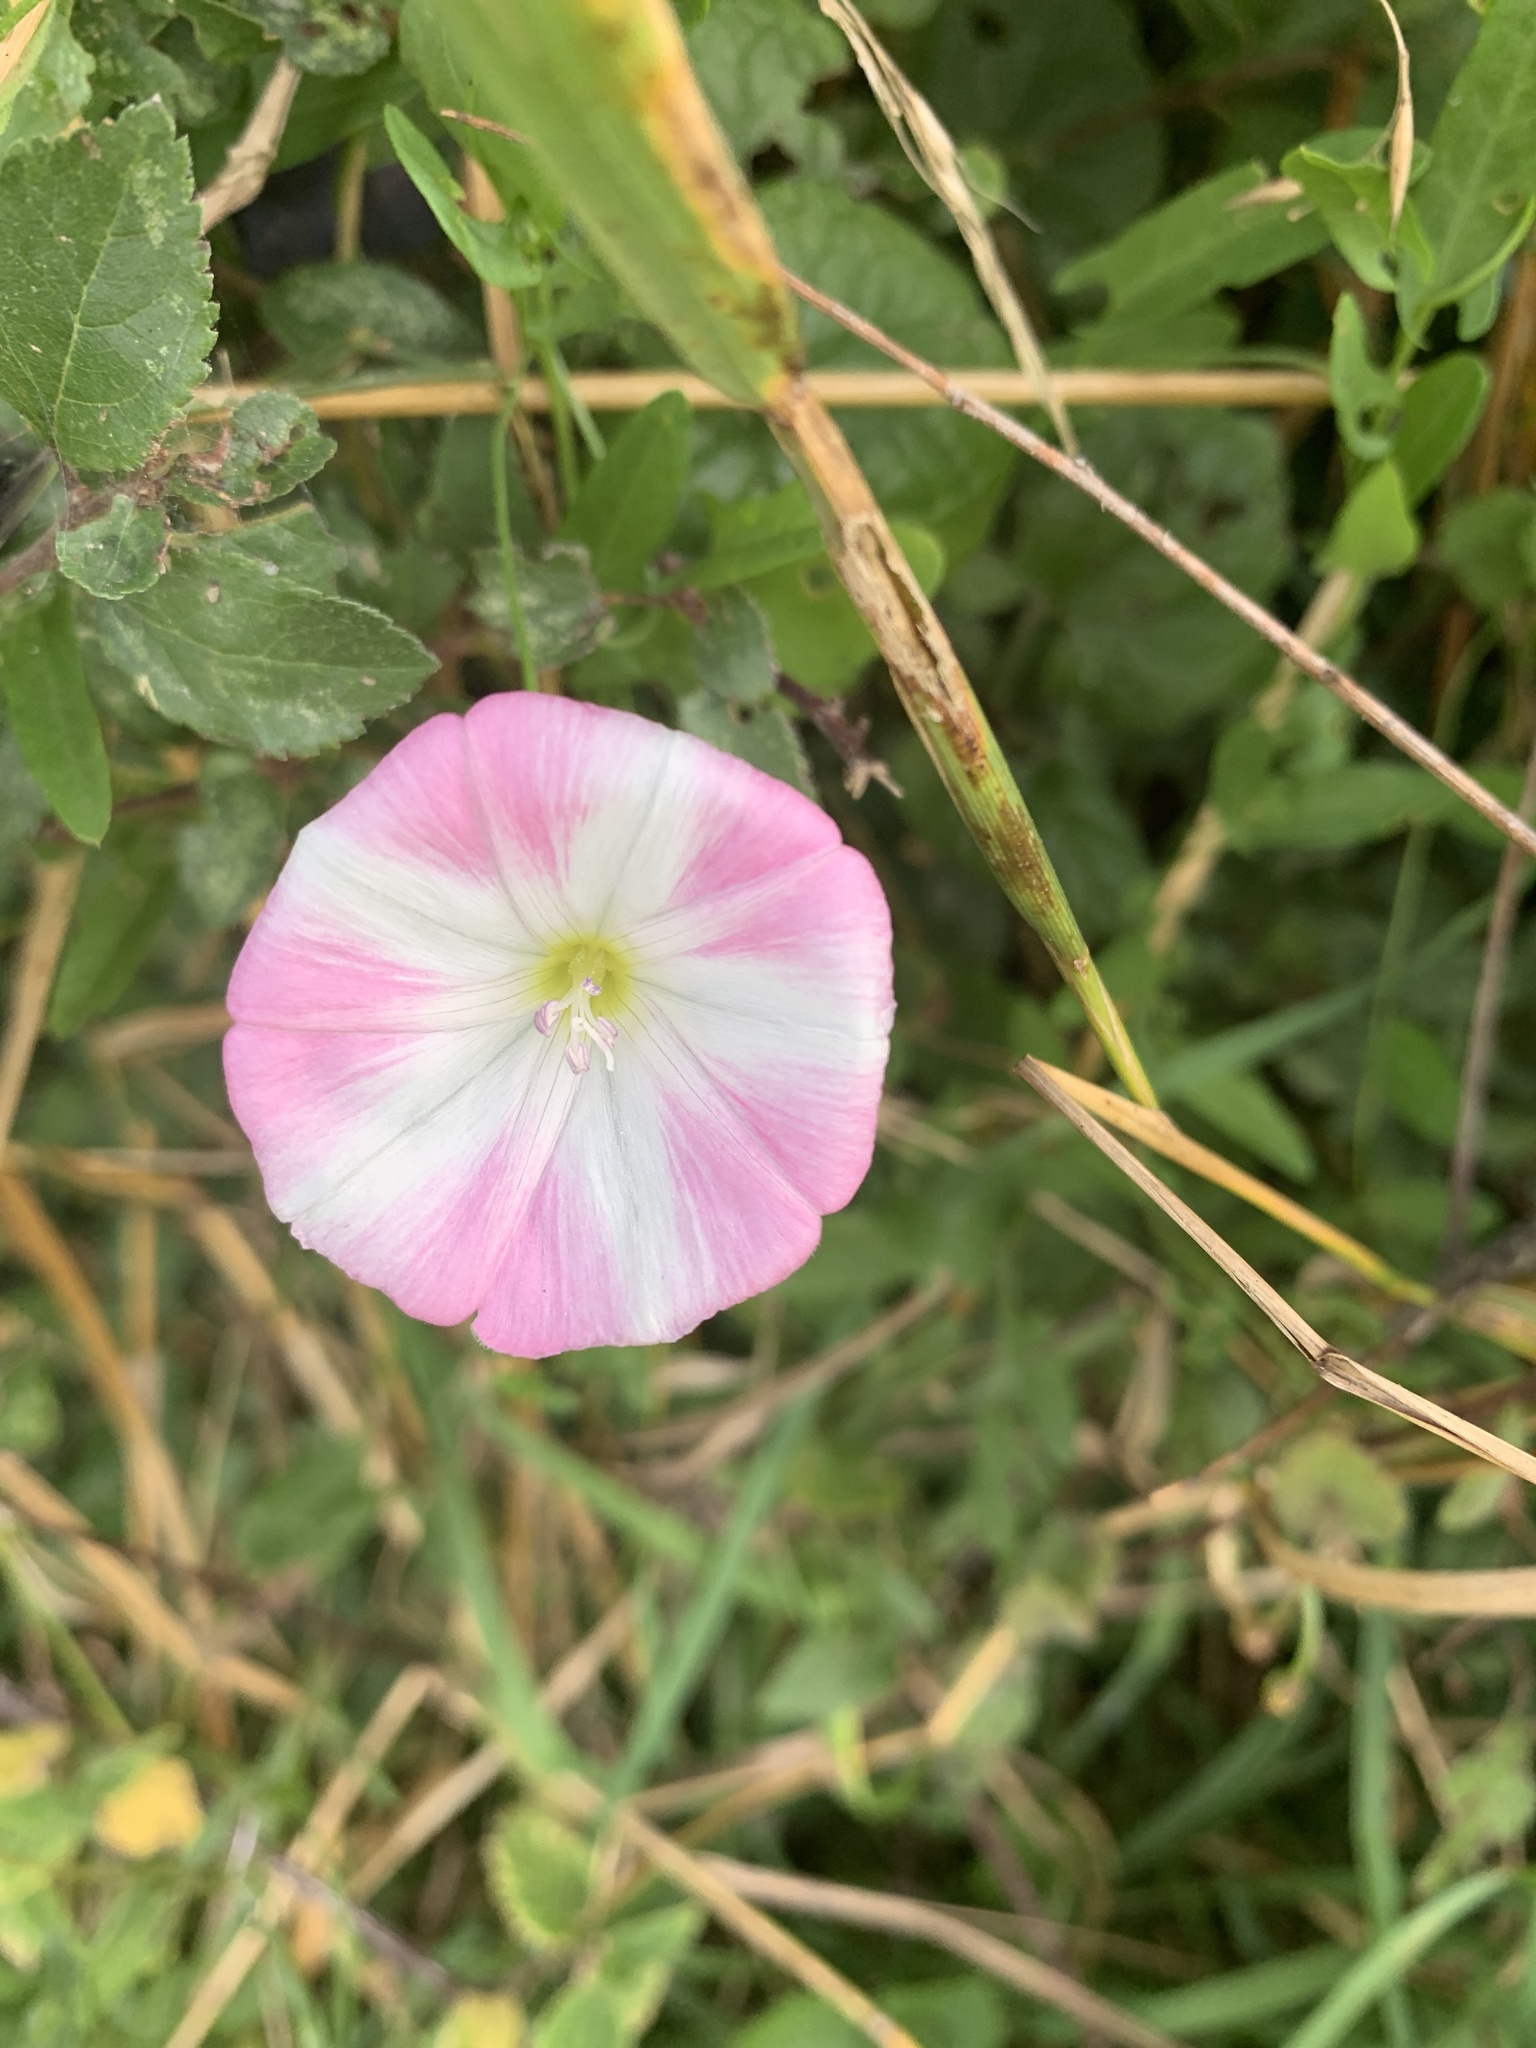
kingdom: Plantae
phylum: Tracheophyta
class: Magnoliopsida
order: Solanales
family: Convolvulaceae
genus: Convolvulus
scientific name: Convolvulus arvensis
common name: Field bindweed
